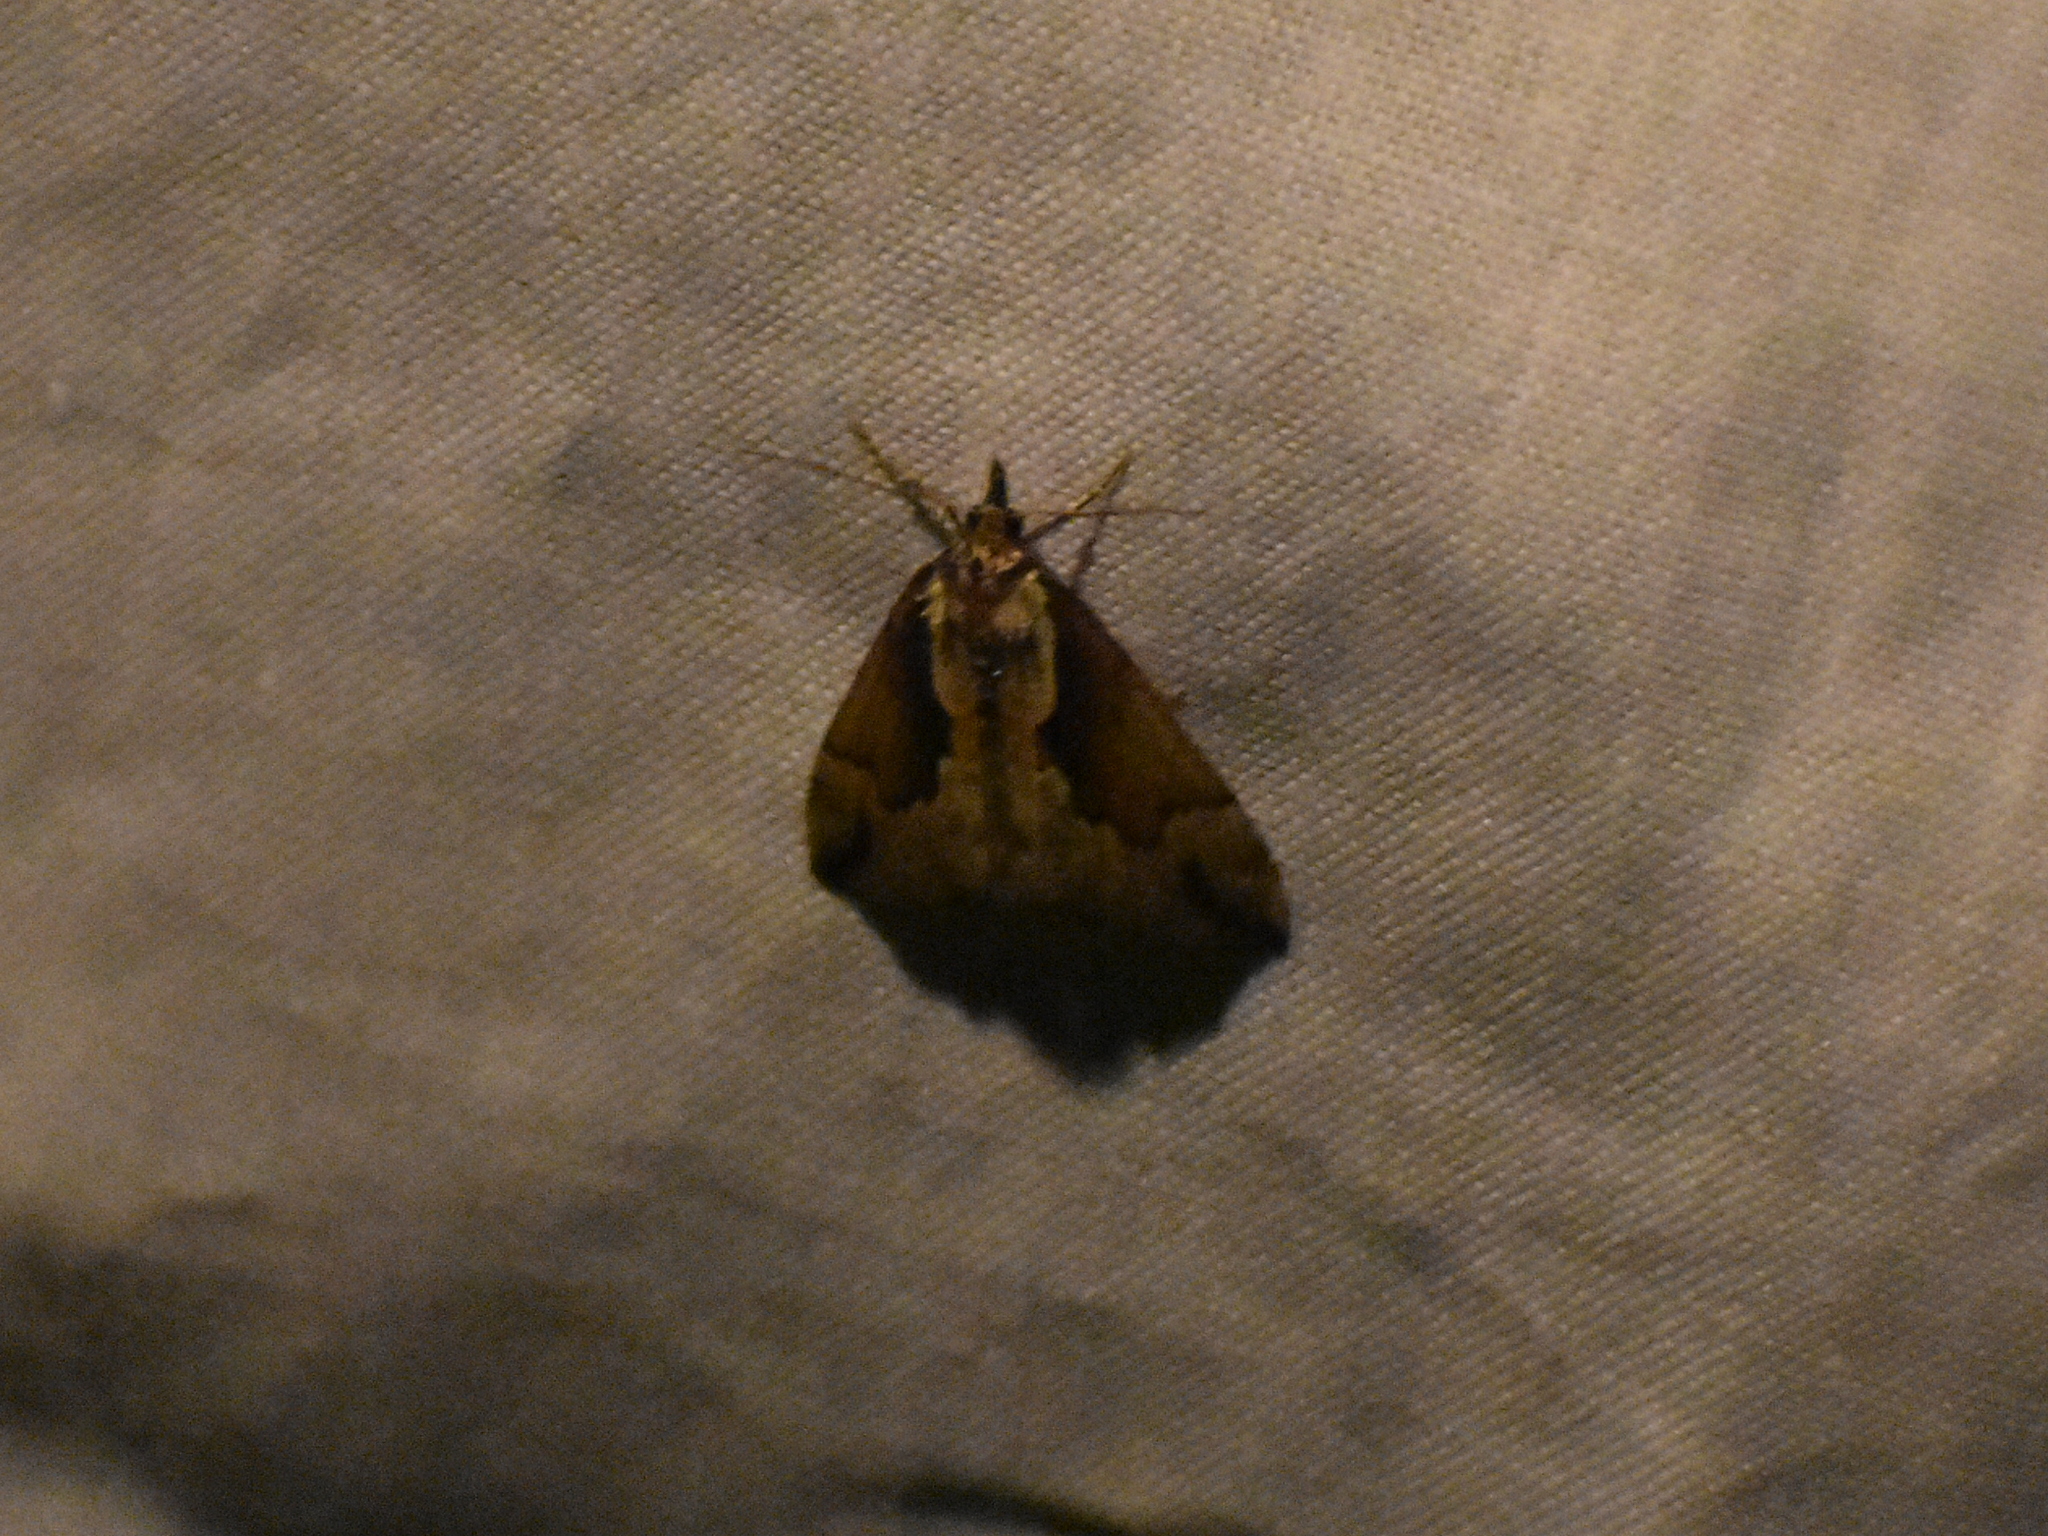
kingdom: Animalia
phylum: Arthropoda
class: Insecta
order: Lepidoptera
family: Erebidae
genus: Hypena
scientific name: Hypena baltimoralis
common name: Baltimore snout
